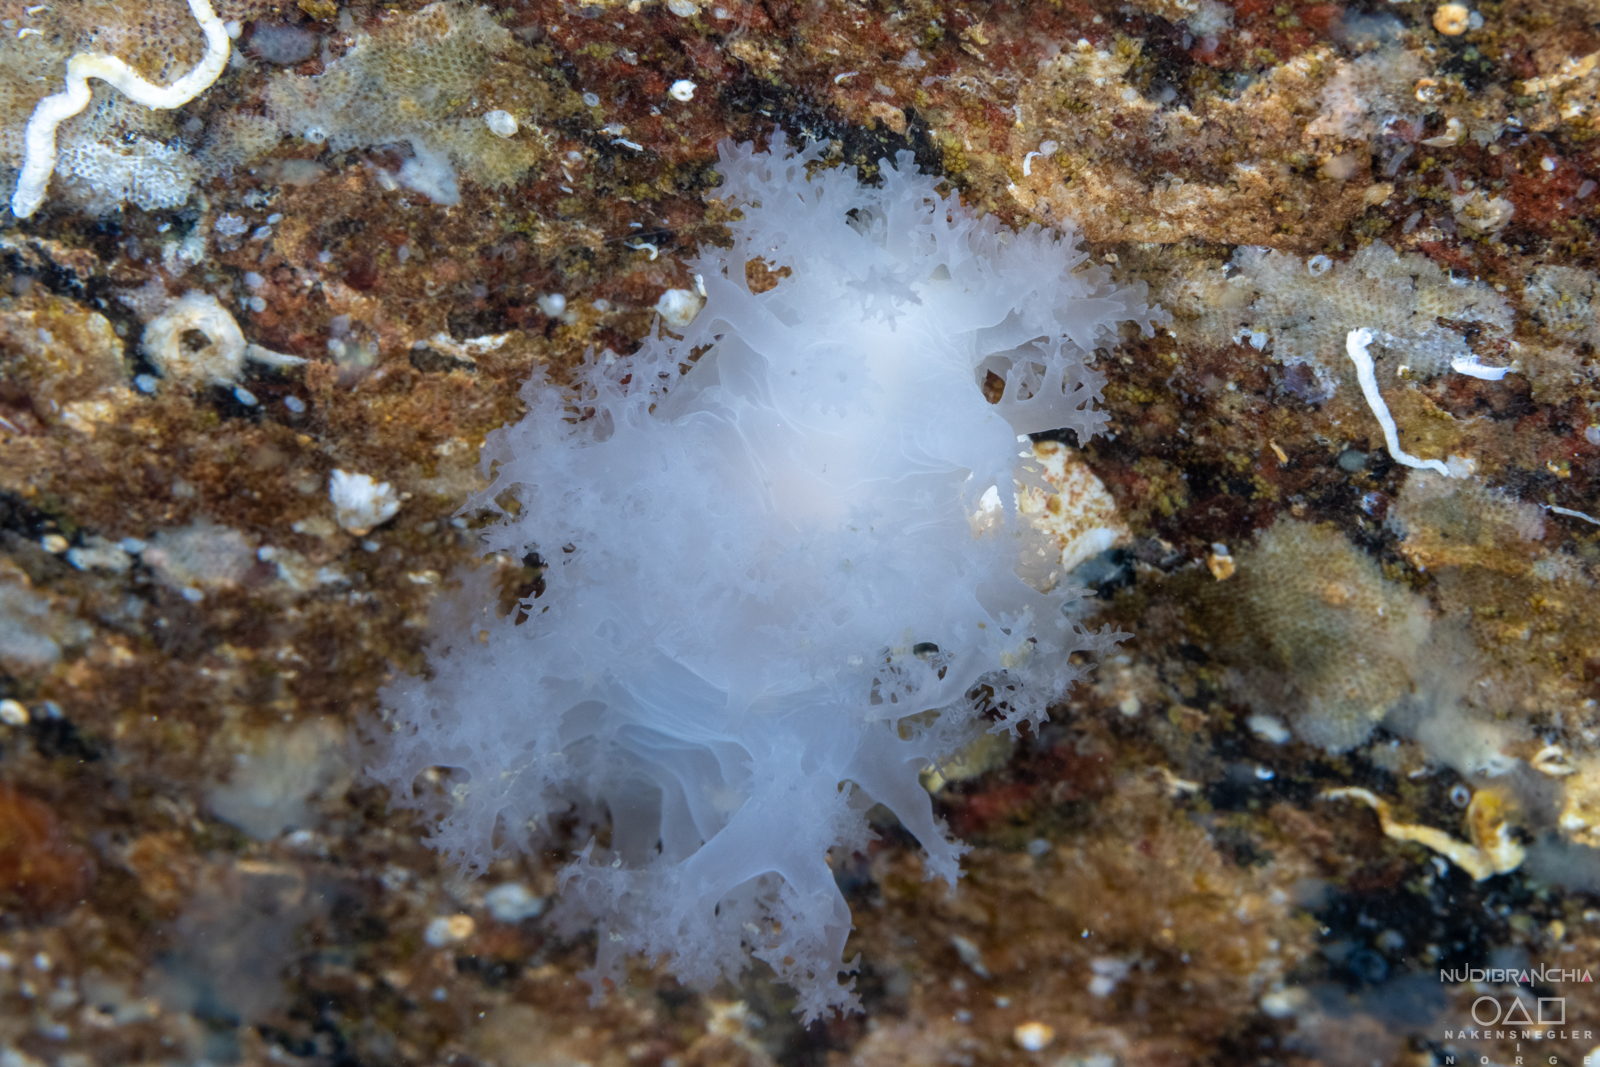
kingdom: Animalia
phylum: Mollusca
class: Gastropoda
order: Nudibranchia
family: Dendronotidae
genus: Dendronotus
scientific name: Dendronotus lacteus
